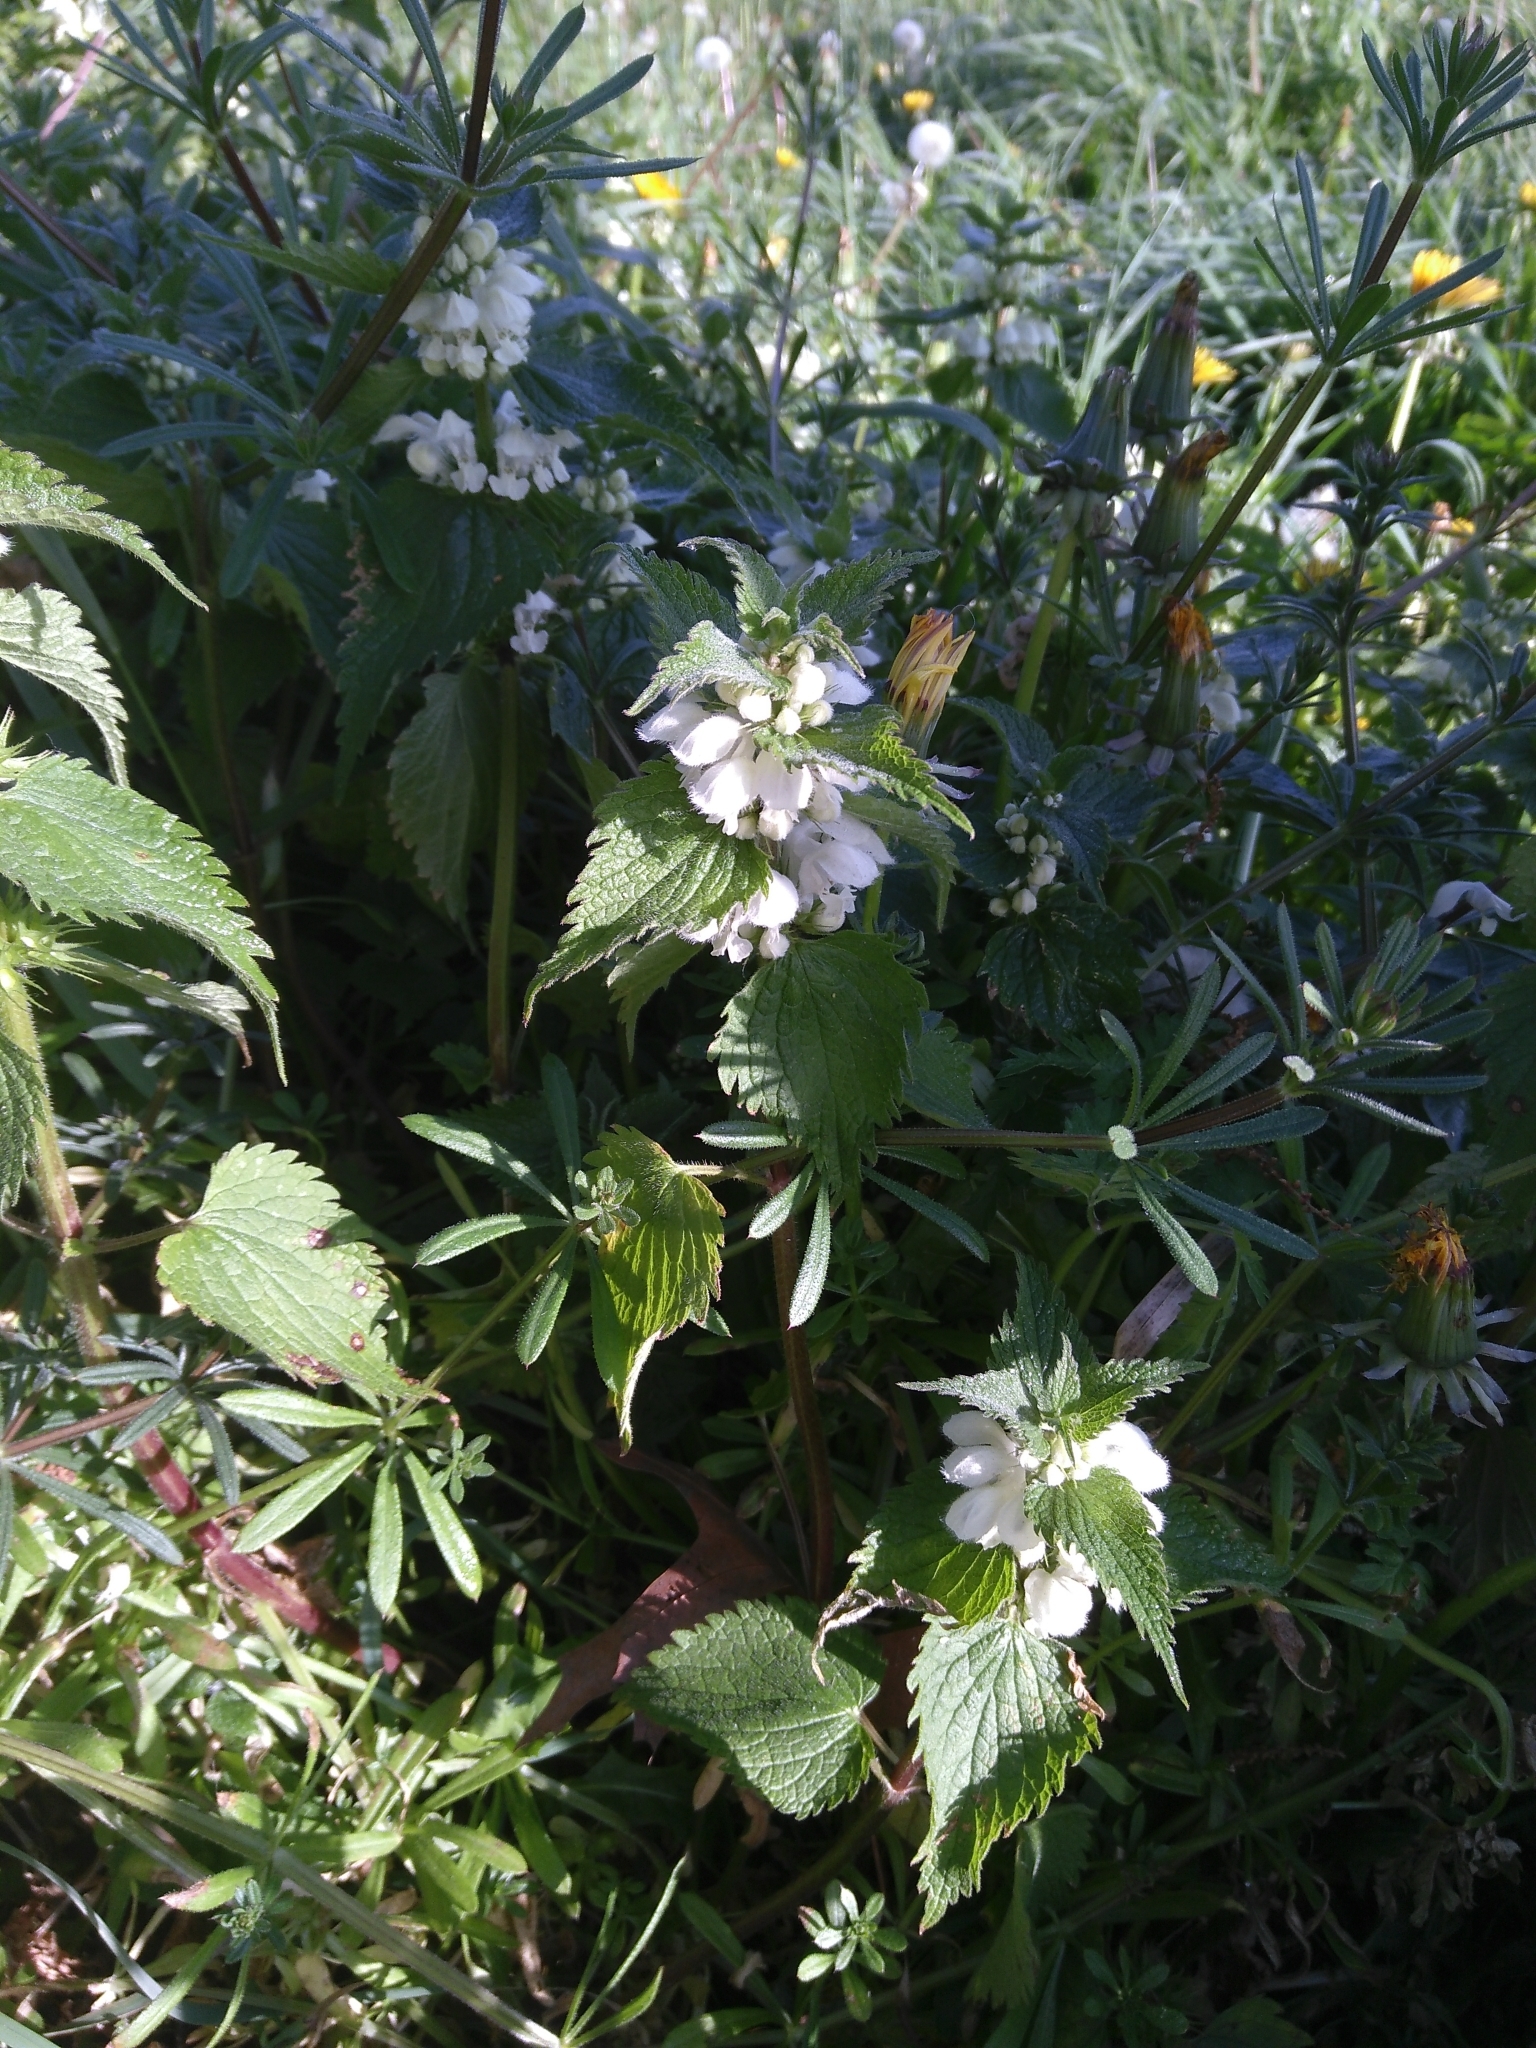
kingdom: Plantae
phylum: Tracheophyta
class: Magnoliopsida
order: Lamiales
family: Lamiaceae
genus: Lamium
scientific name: Lamium album
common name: White dead-nettle
